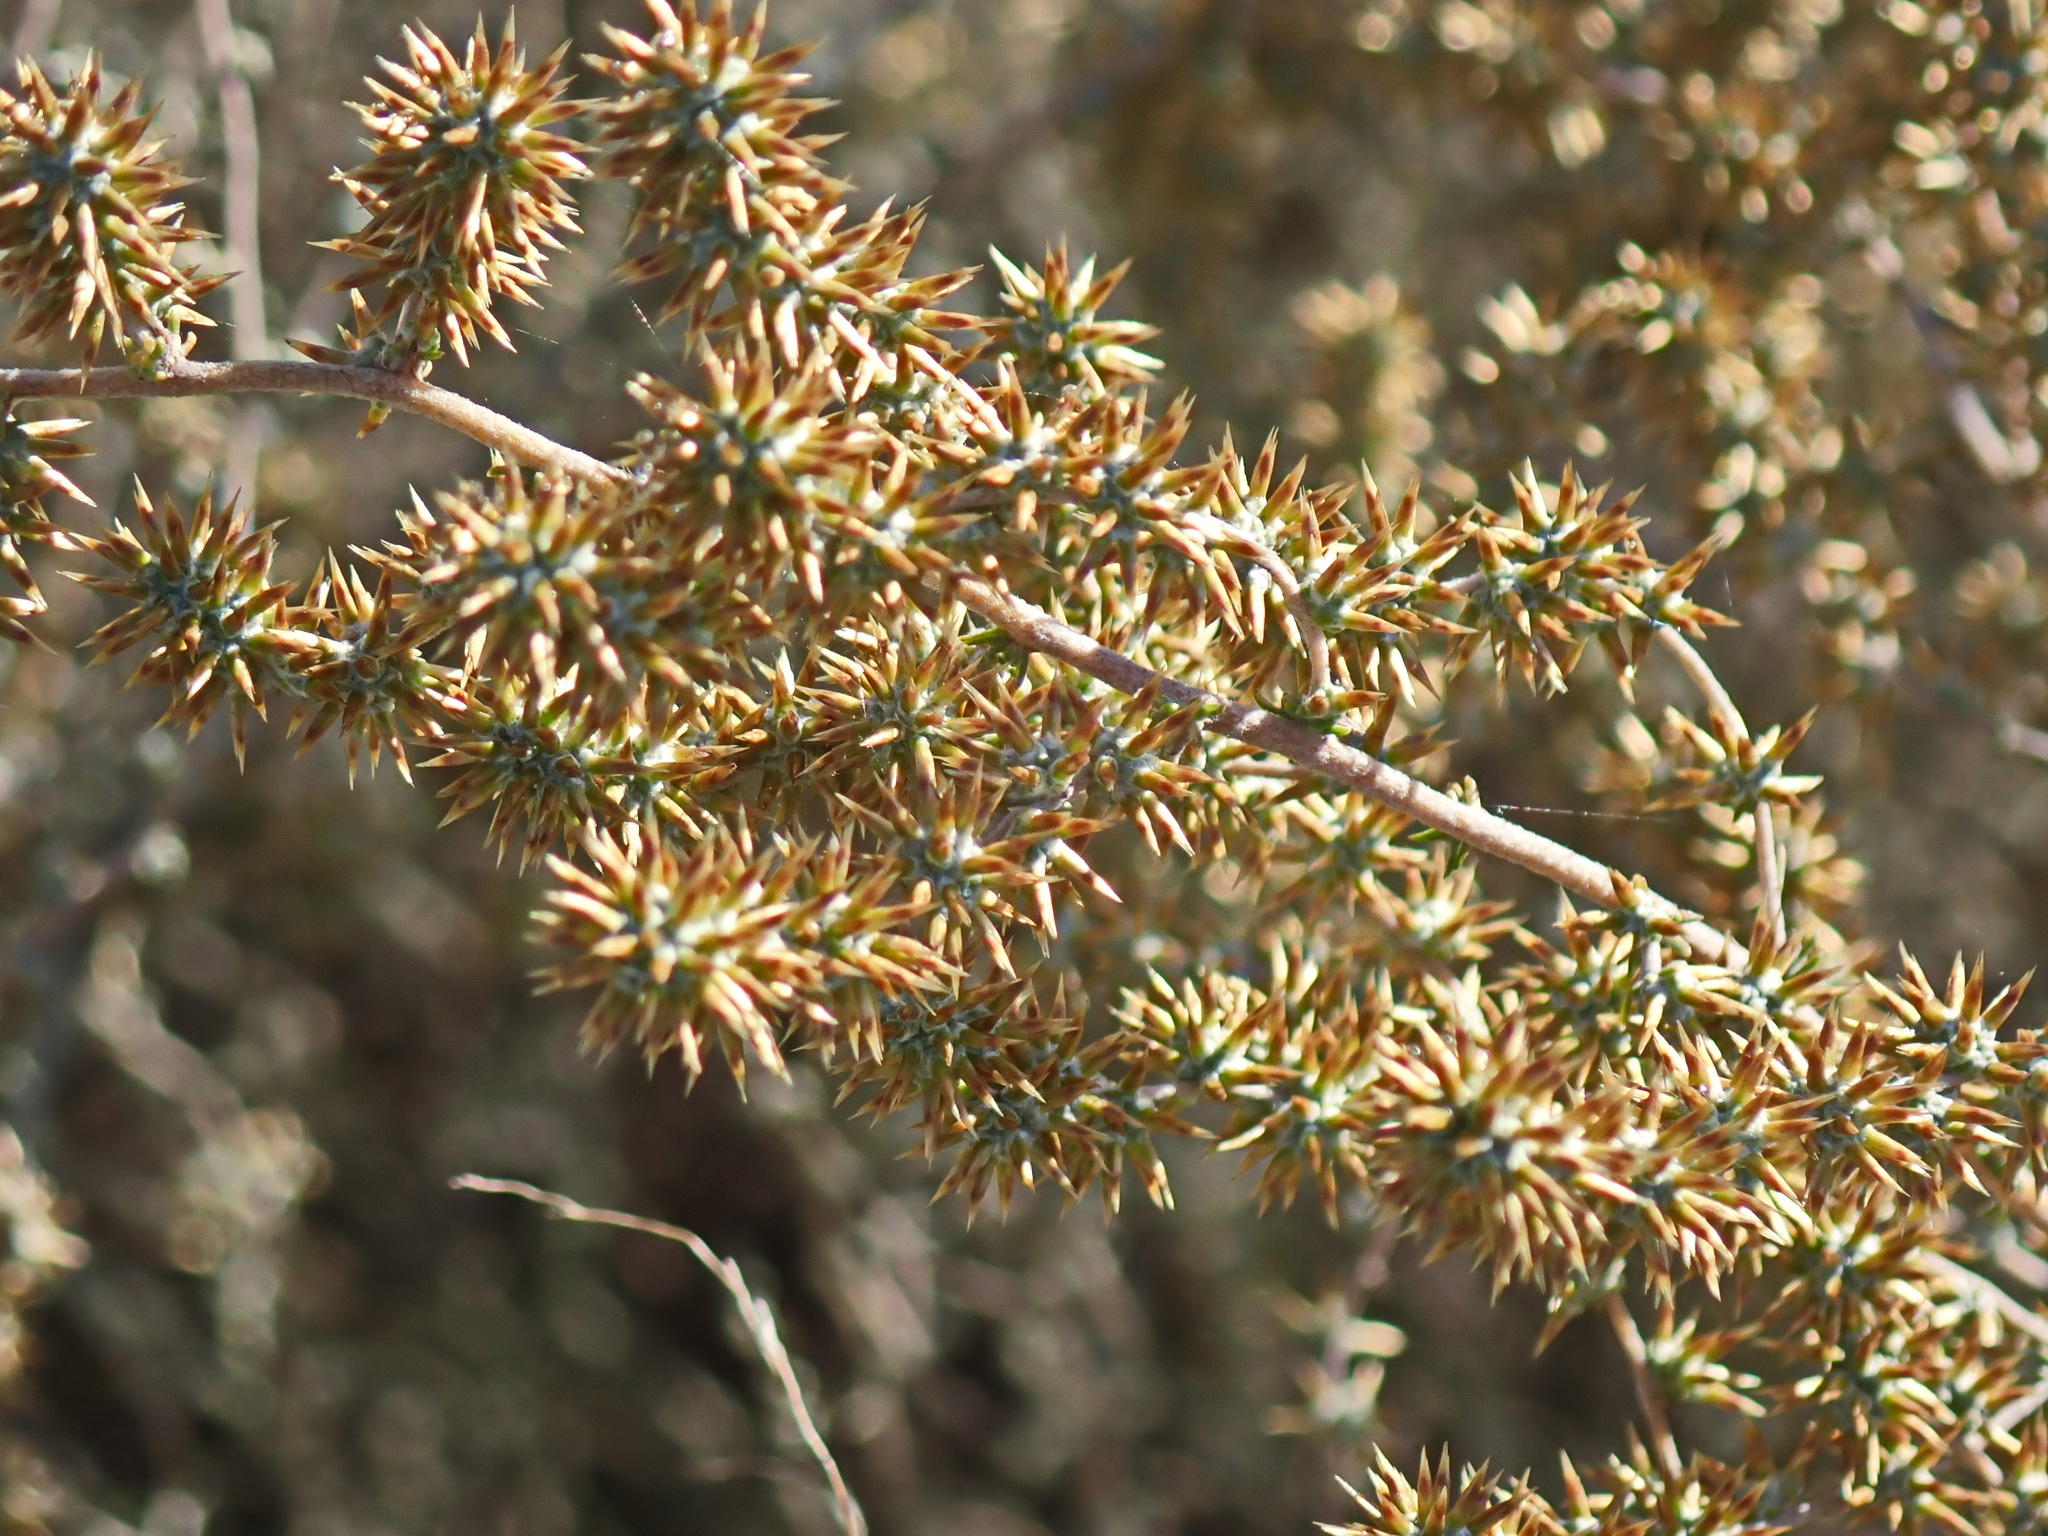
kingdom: Plantae
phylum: Tracheophyta
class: Magnoliopsida
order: Asterales
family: Asteraceae
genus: Seriphium
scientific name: Seriphium plumosum
